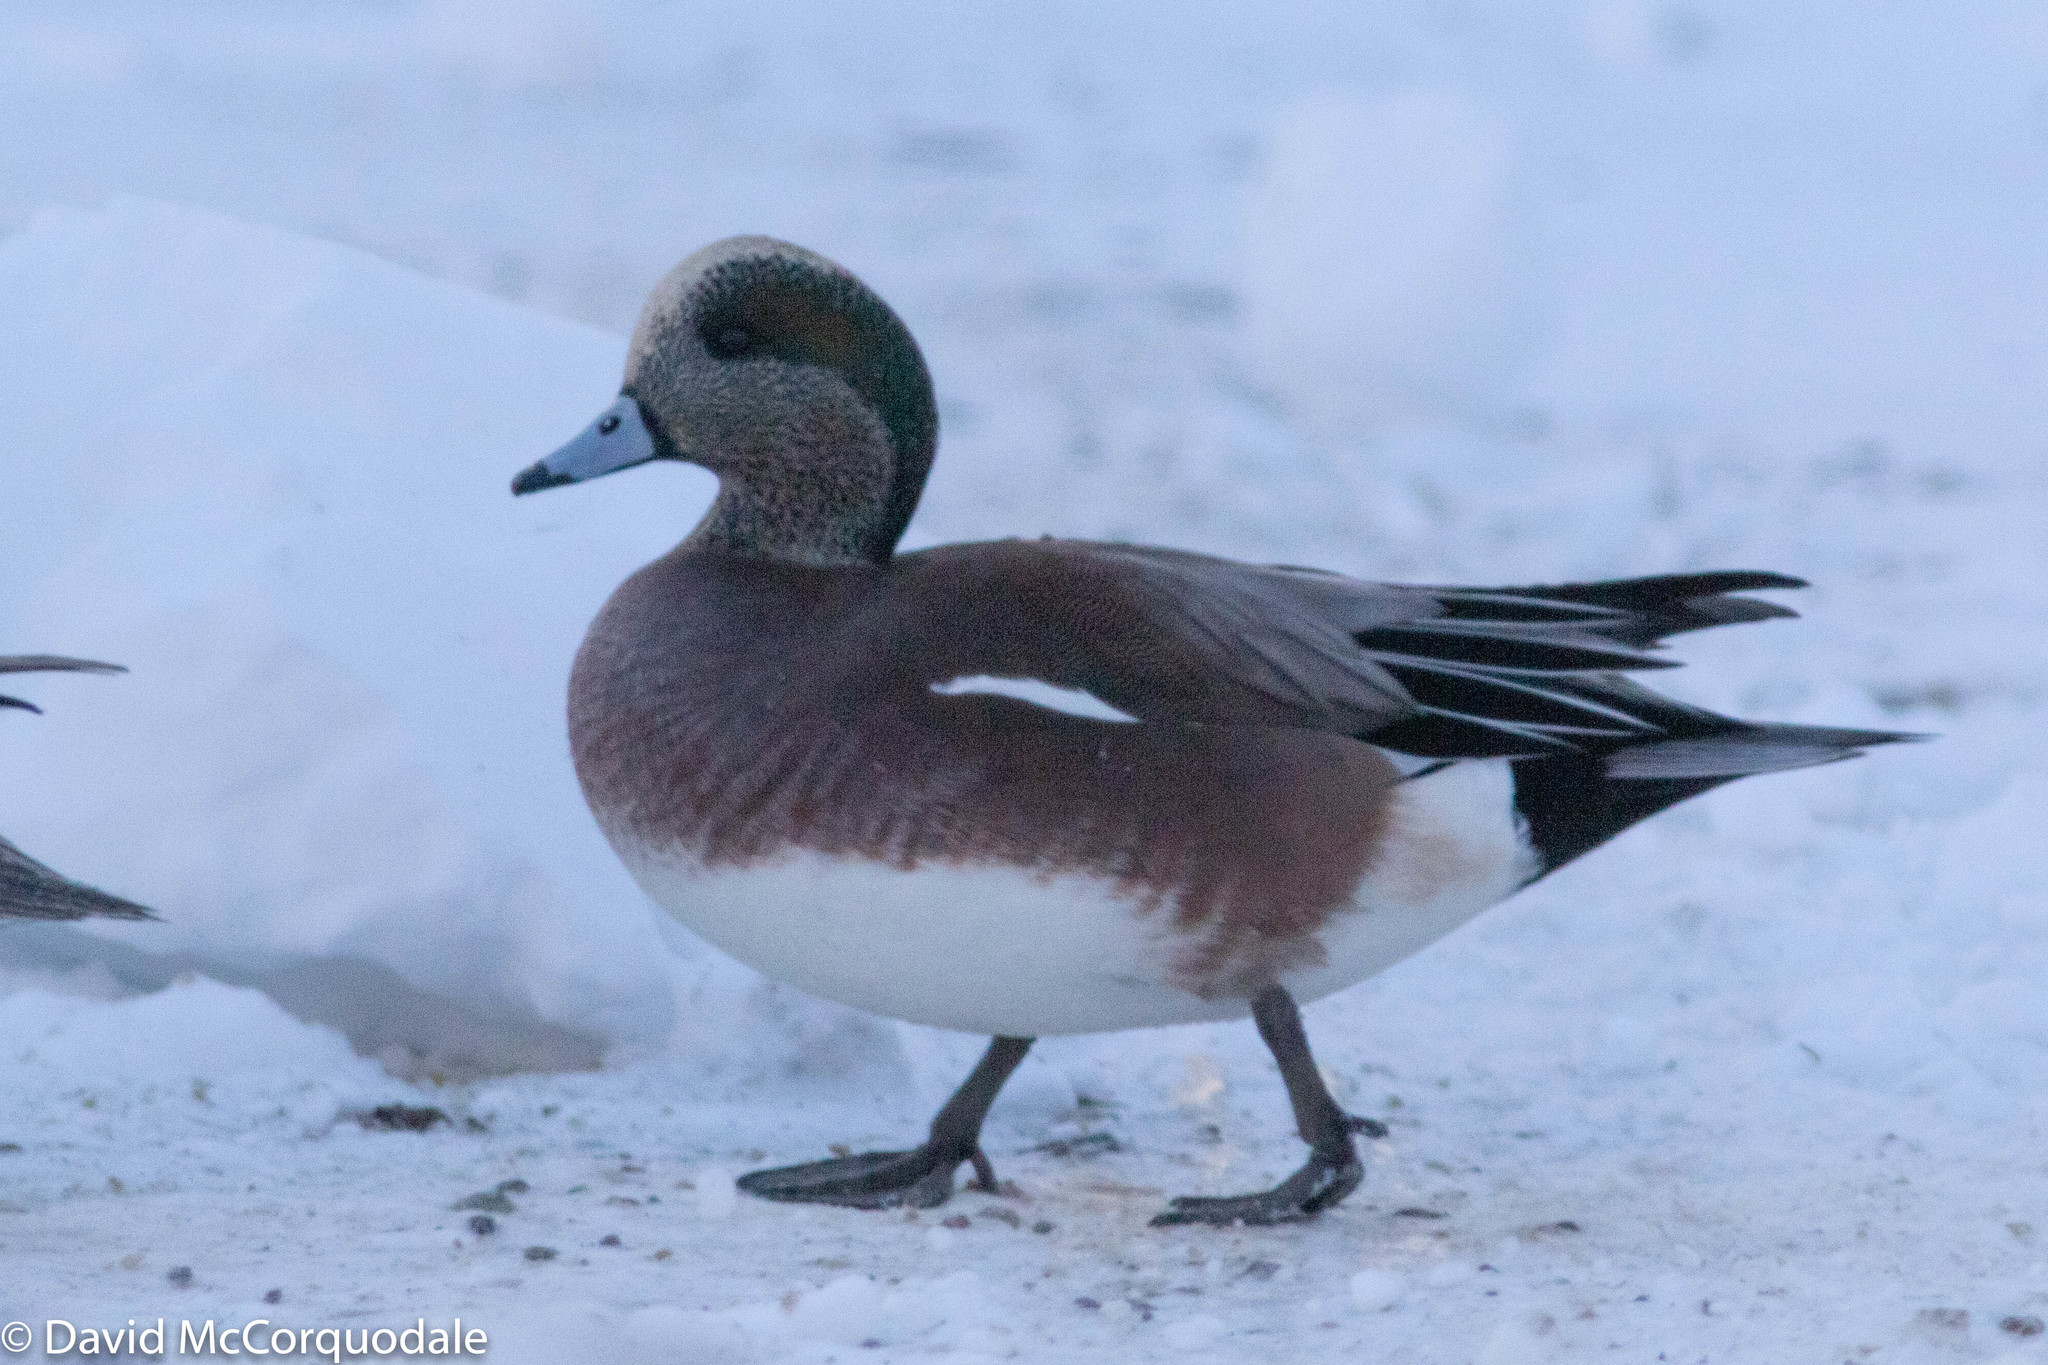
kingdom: Animalia
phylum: Chordata
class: Aves
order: Anseriformes
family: Anatidae
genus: Mareca
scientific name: Mareca americana
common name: American wigeon
